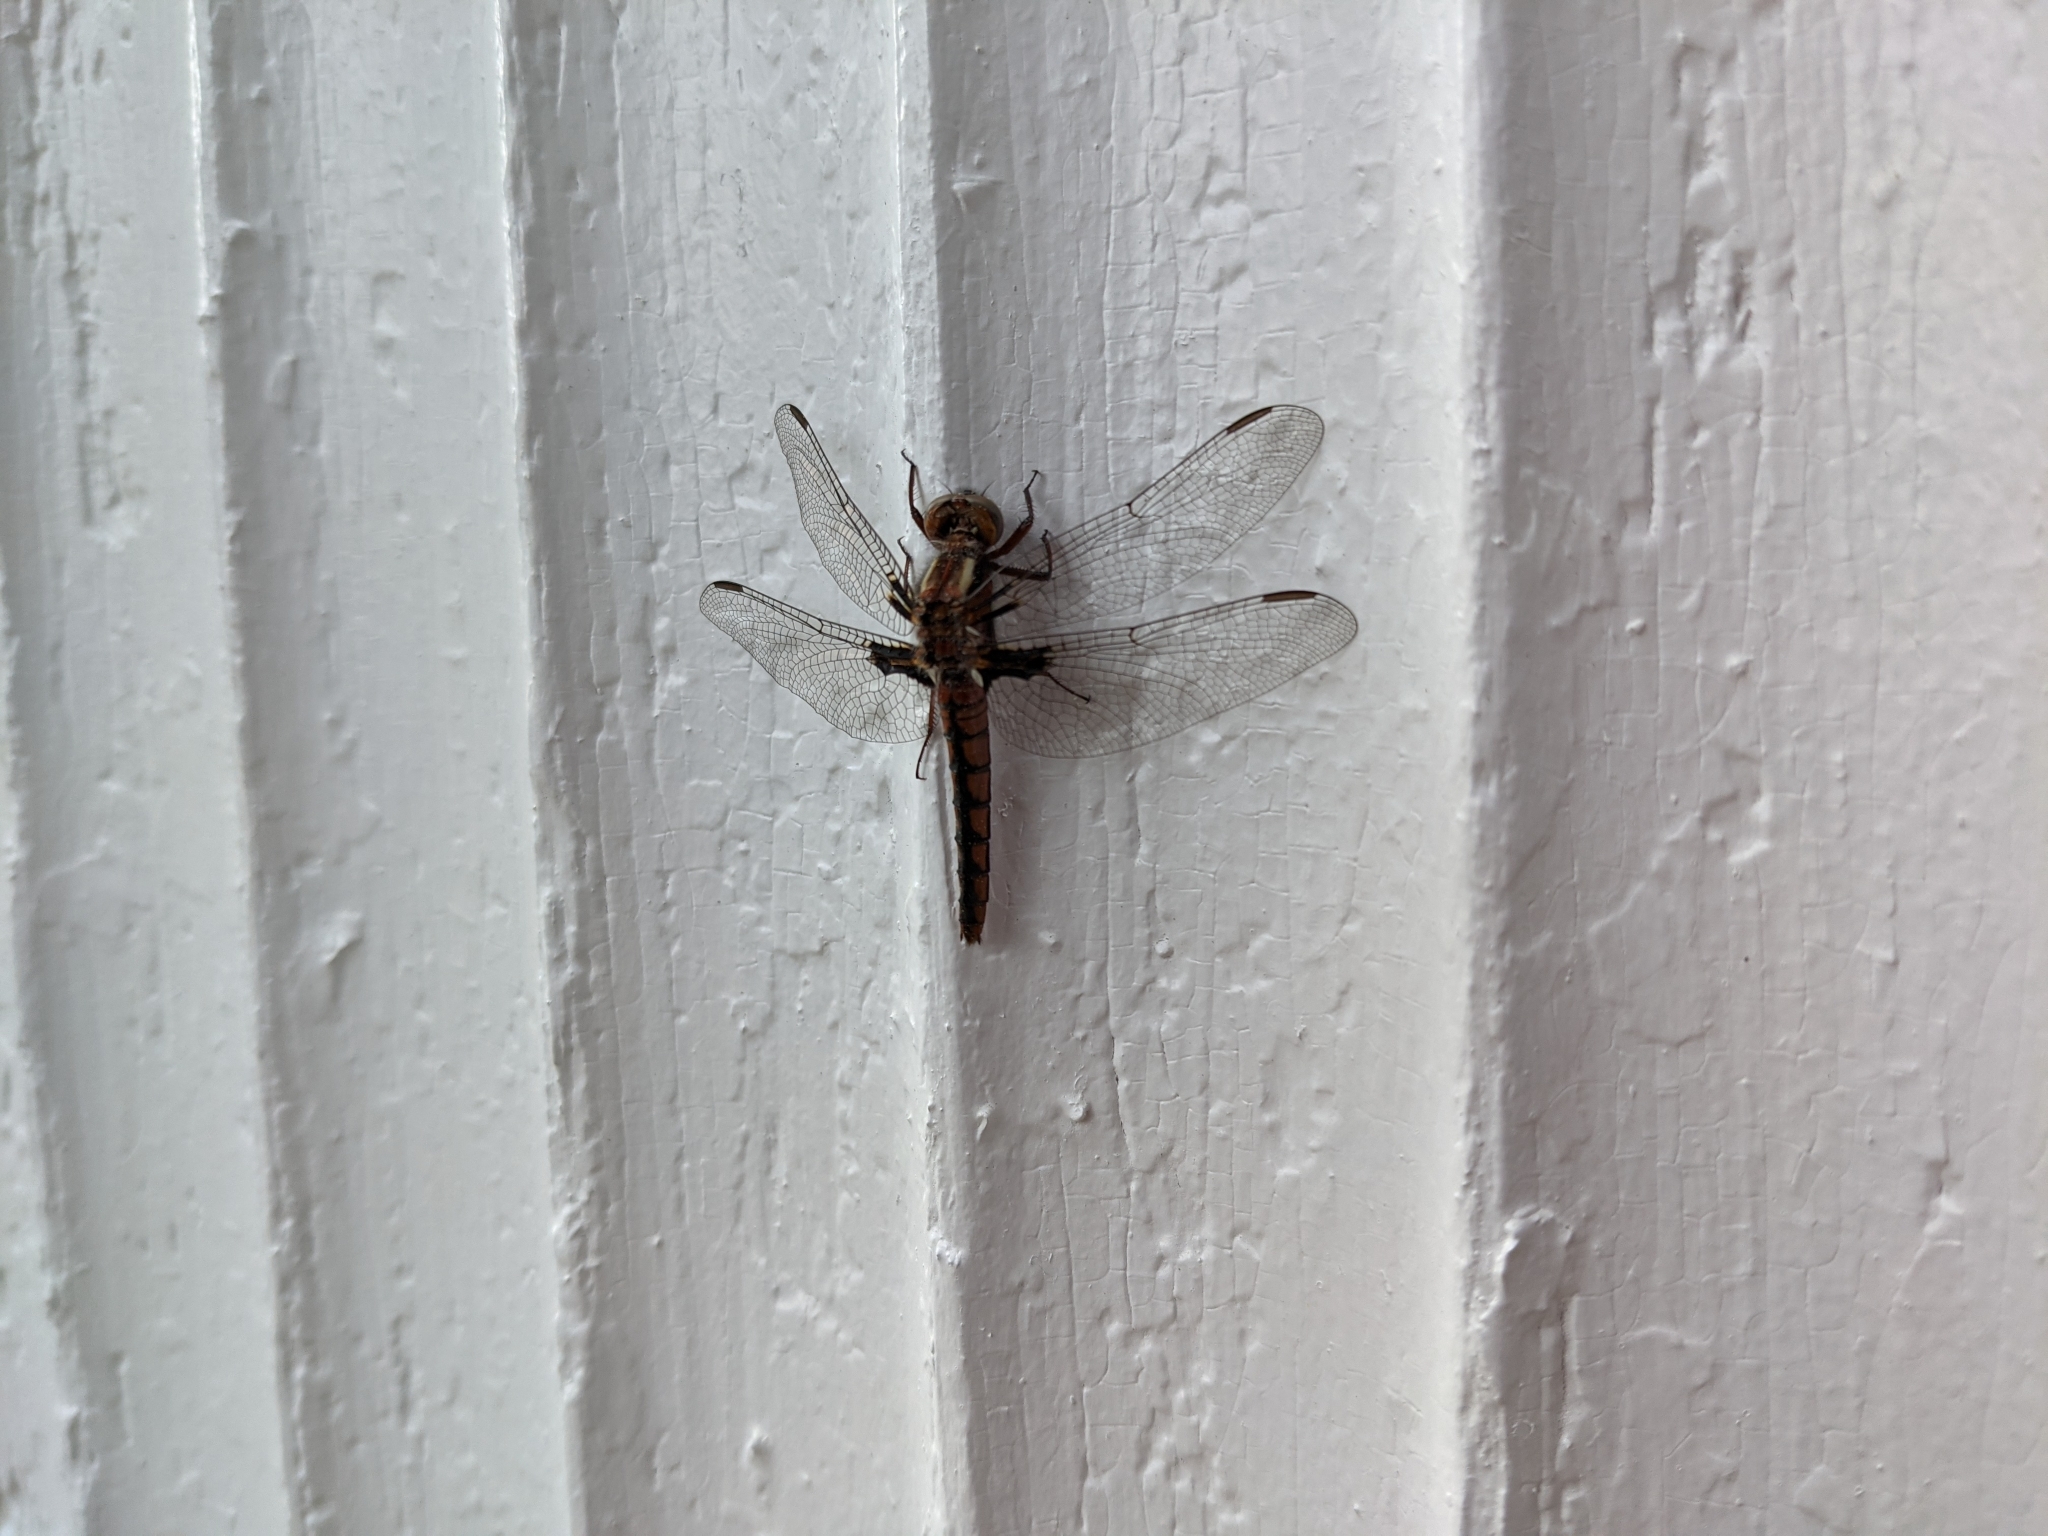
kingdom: Animalia
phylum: Arthropoda
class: Insecta
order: Odonata
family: Libellulidae
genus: Ladona
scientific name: Ladona deplanata
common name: Blue corporal
